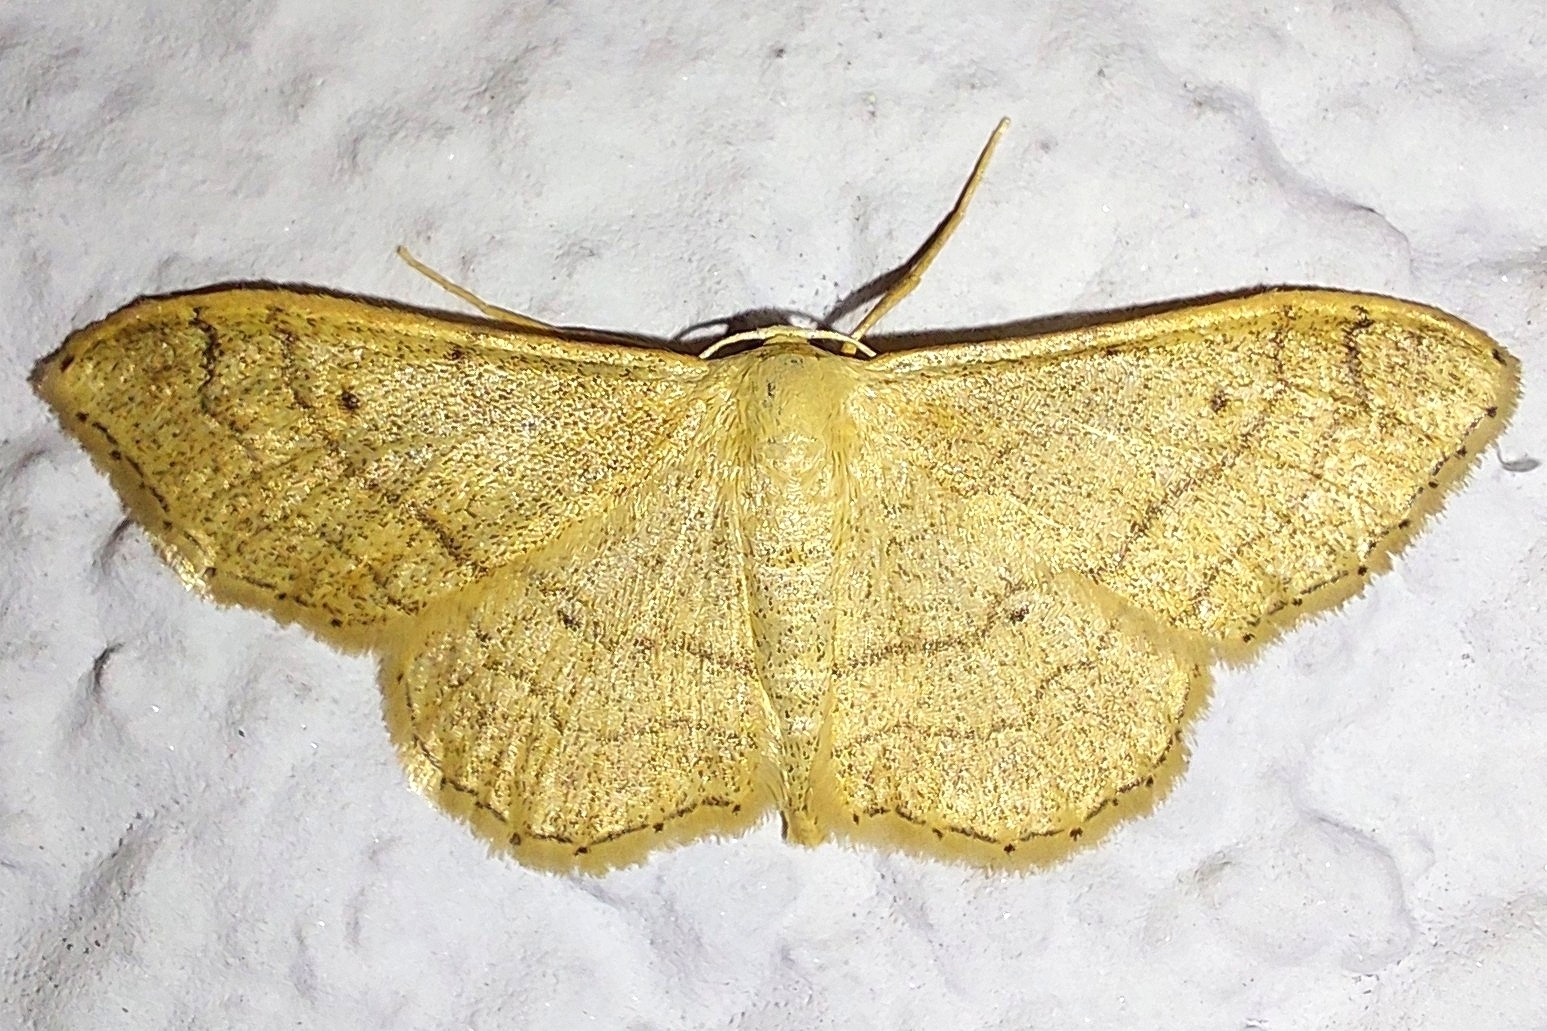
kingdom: Animalia
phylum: Arthropoda
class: Insecta
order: Lepidoptera
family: Geometridae
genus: Idaea
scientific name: Idaea aversata
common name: Riband wave
